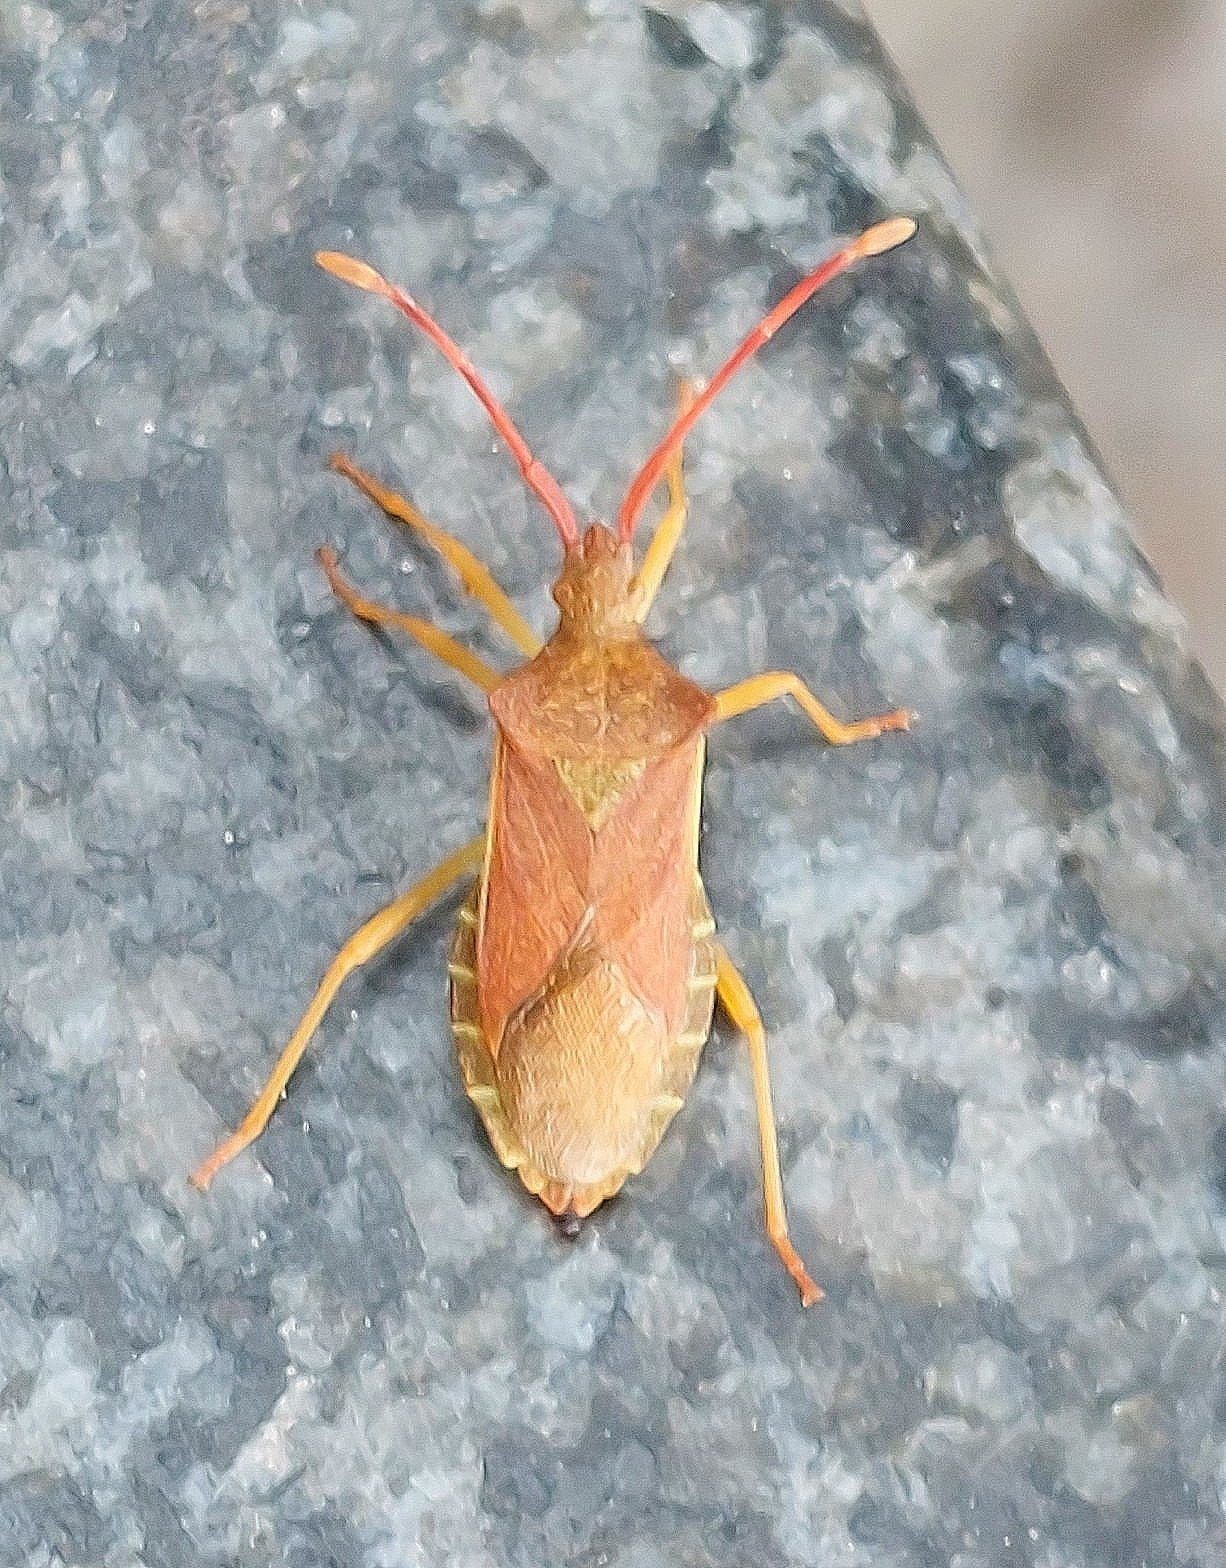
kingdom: Animalia
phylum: Arthropoda
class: Insecta
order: Hemiptera
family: Coreidae
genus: Gonocerus
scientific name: Gonocerus acuteangulatus
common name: Box bug
